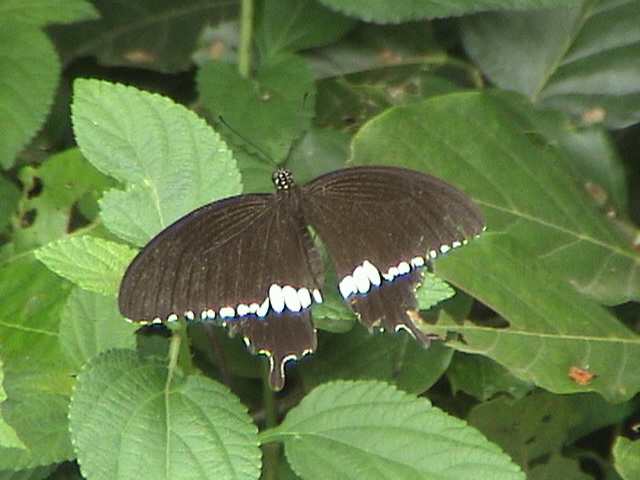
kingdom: Animalia
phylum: Arthropoda
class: Insecta
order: Lepidoptera
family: Papilionidae
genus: Papilio
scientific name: Papilio polytes
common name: Common mormon
